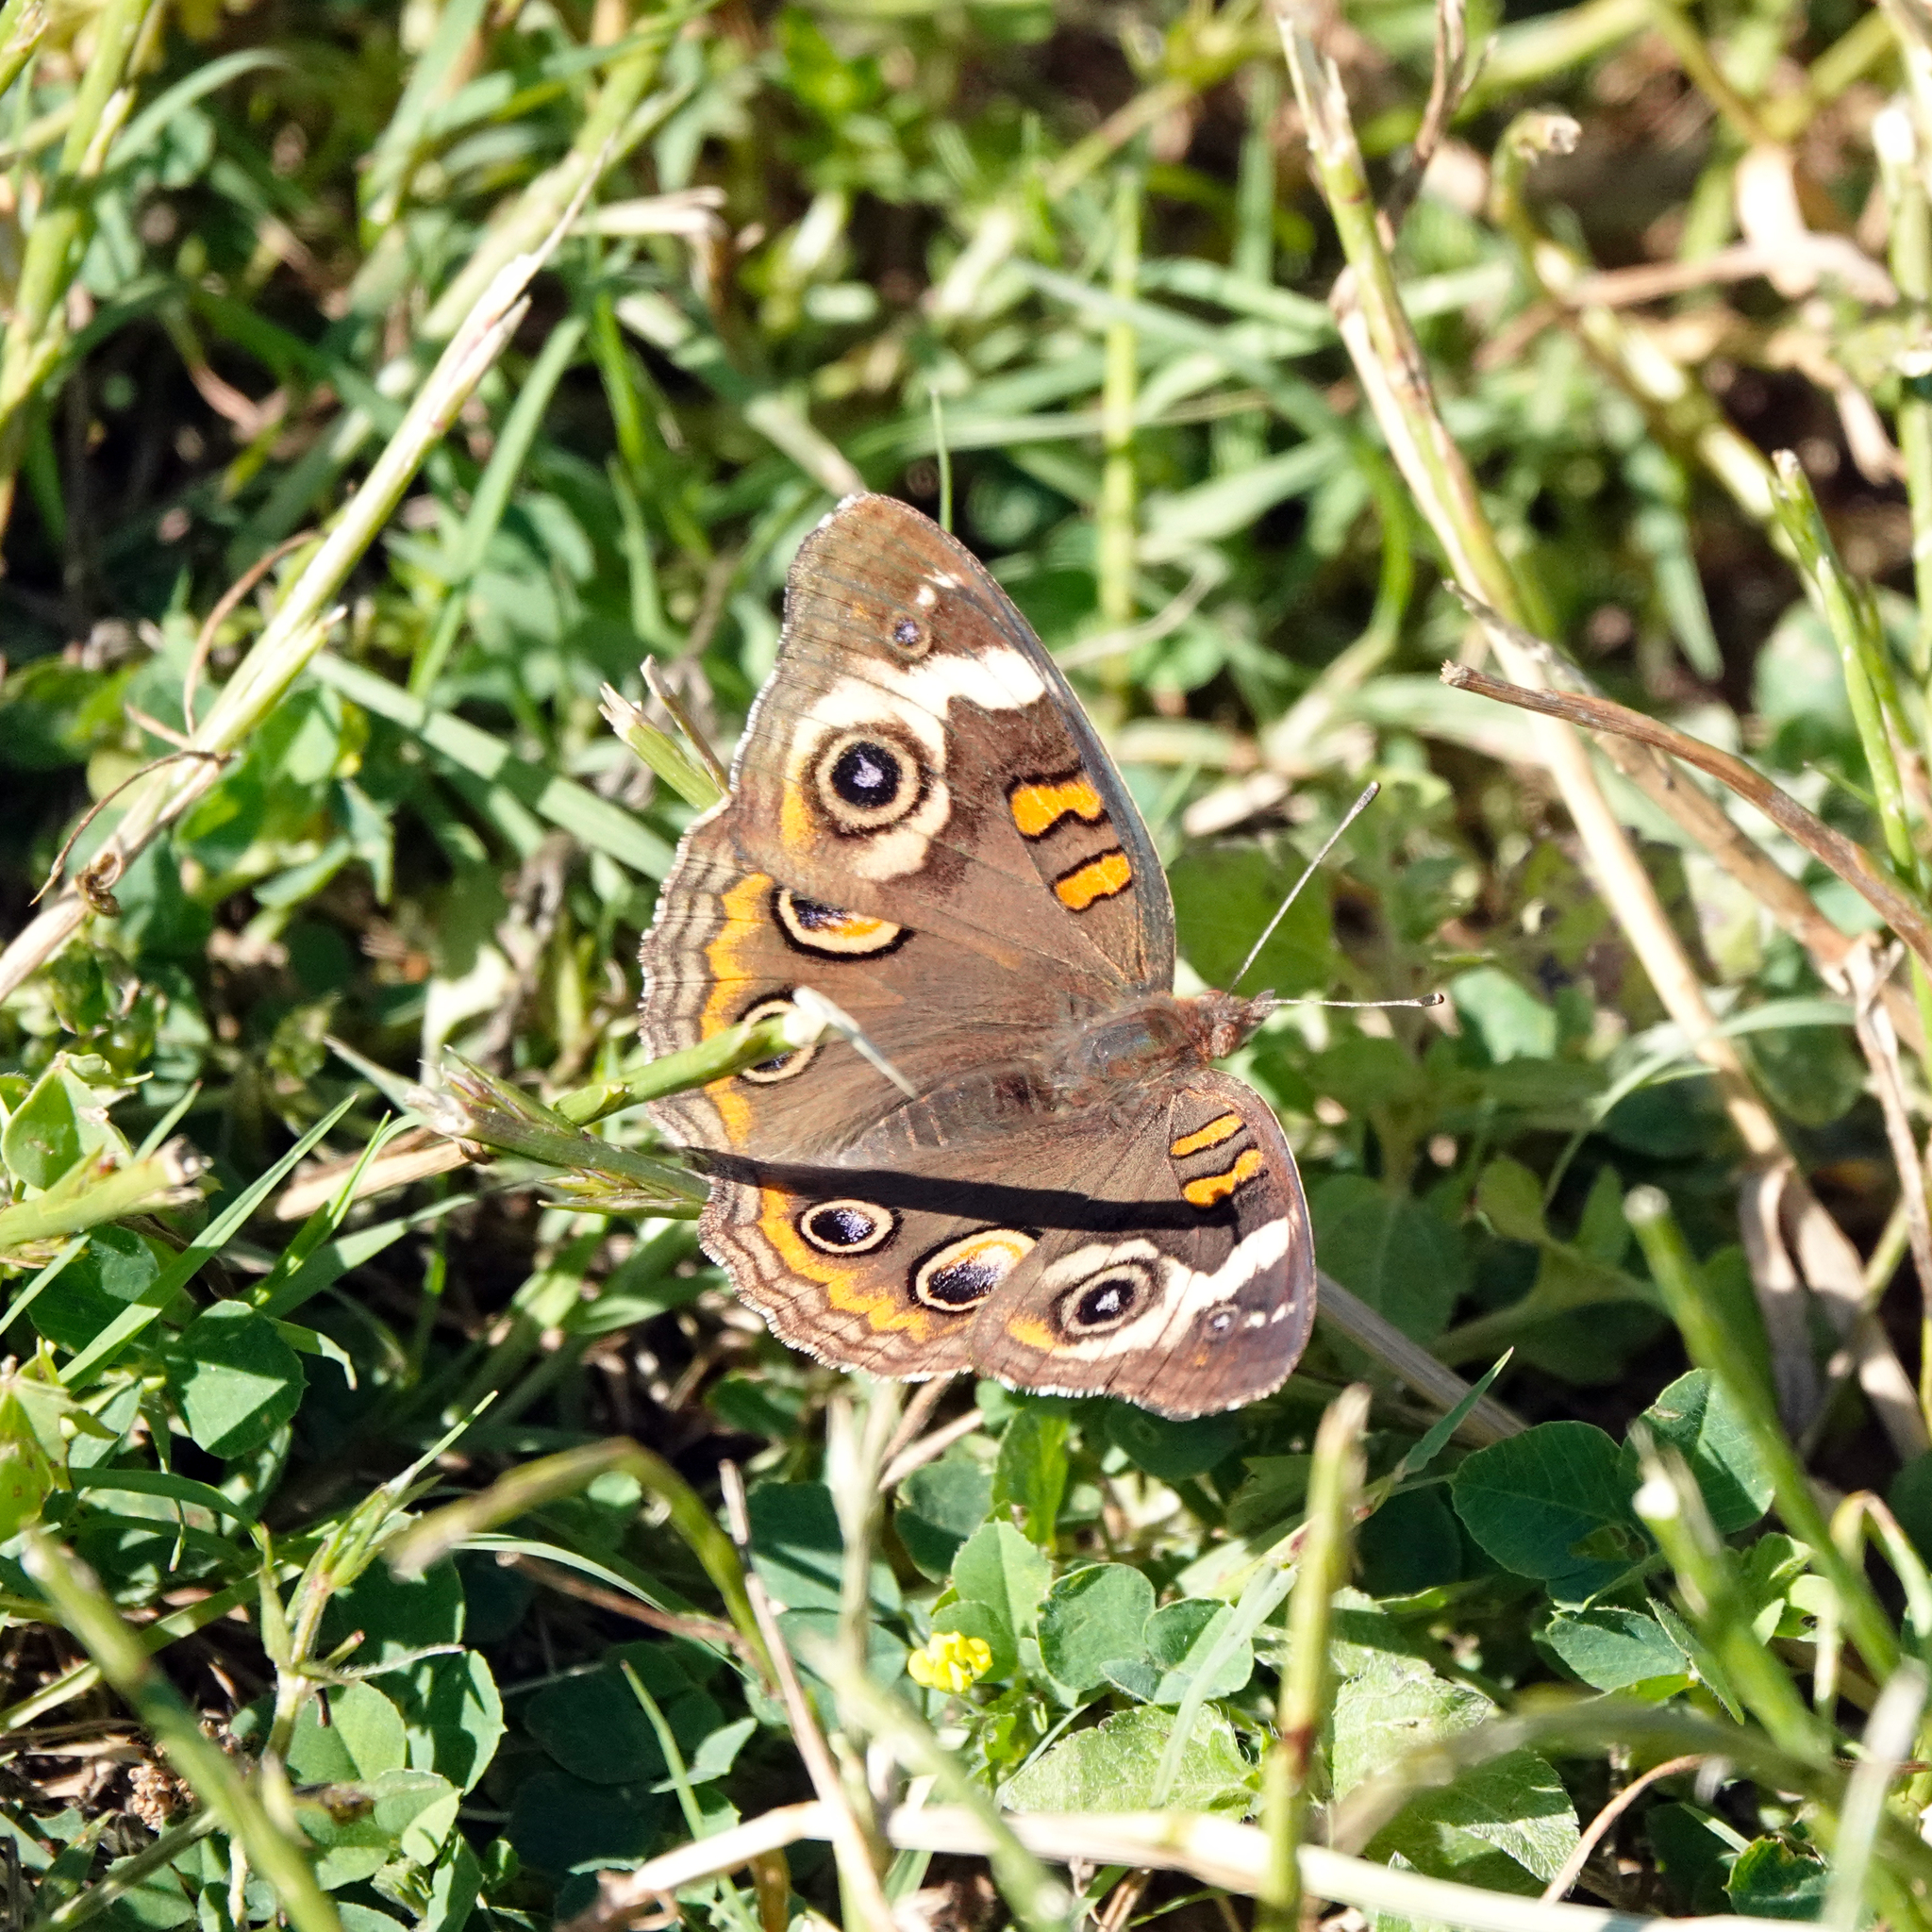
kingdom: Animalia
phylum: Arthropoda
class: Insecta
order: Lepidoptera
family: Nymphalidae
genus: Junonia
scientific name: Junonia coenia
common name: Common buckeye
